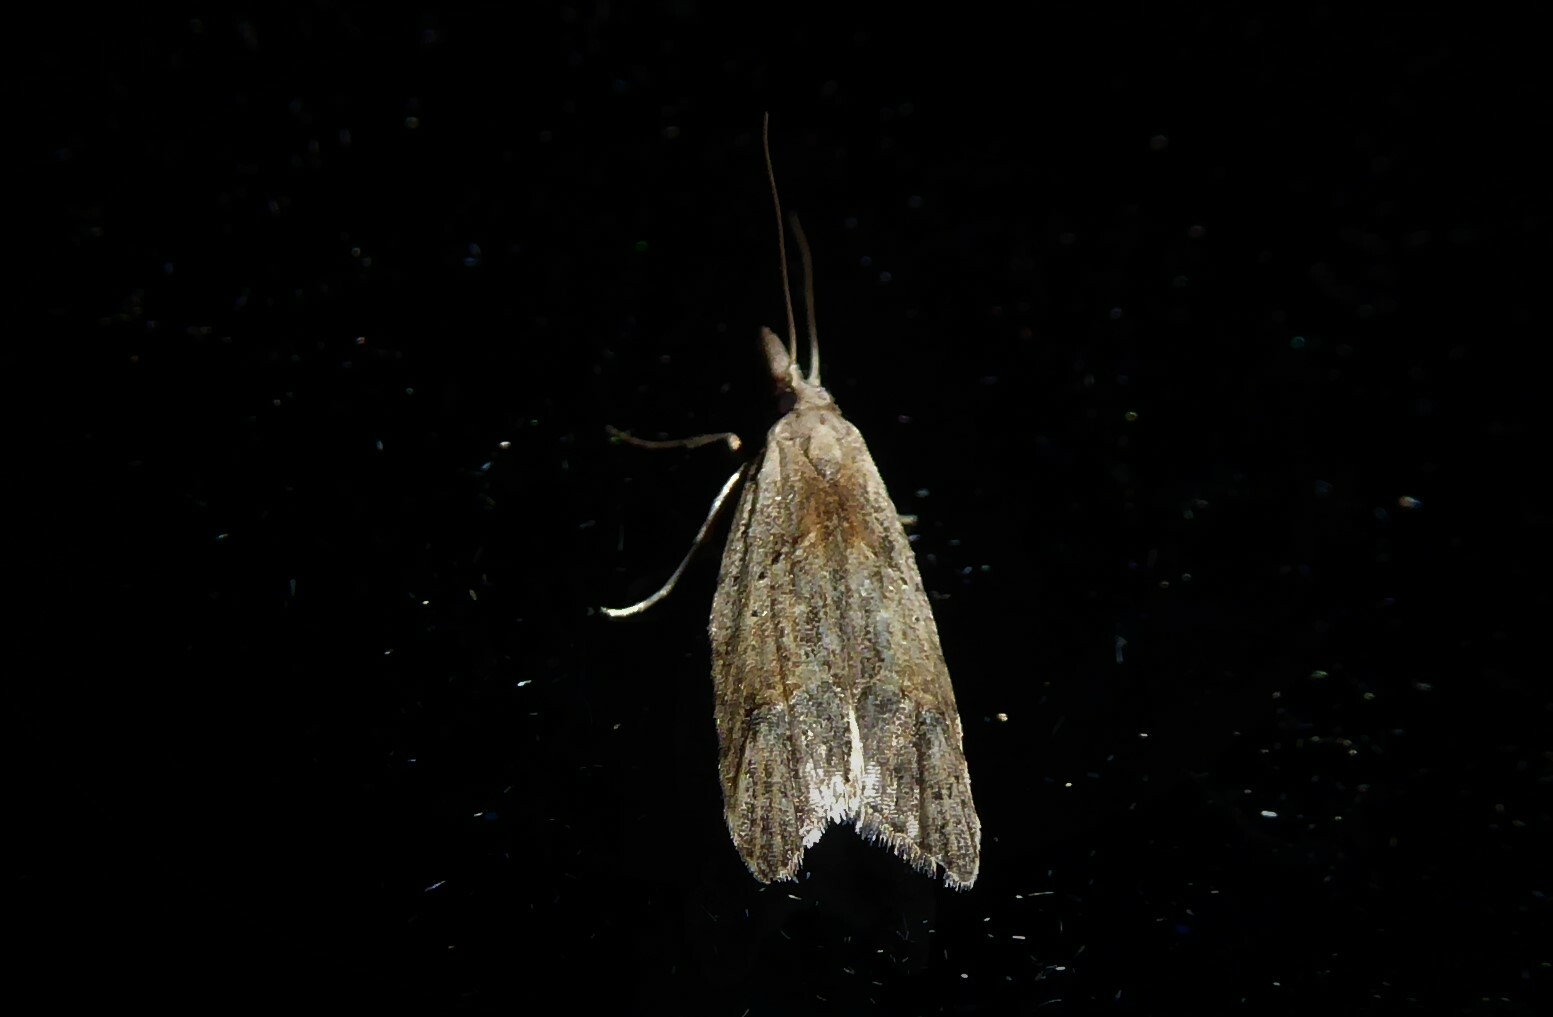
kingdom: Animalia
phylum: Arthropoda
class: Insecta
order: Lepidoptera
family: Carposinidae
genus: Carposina
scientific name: Carposina rubophaga
